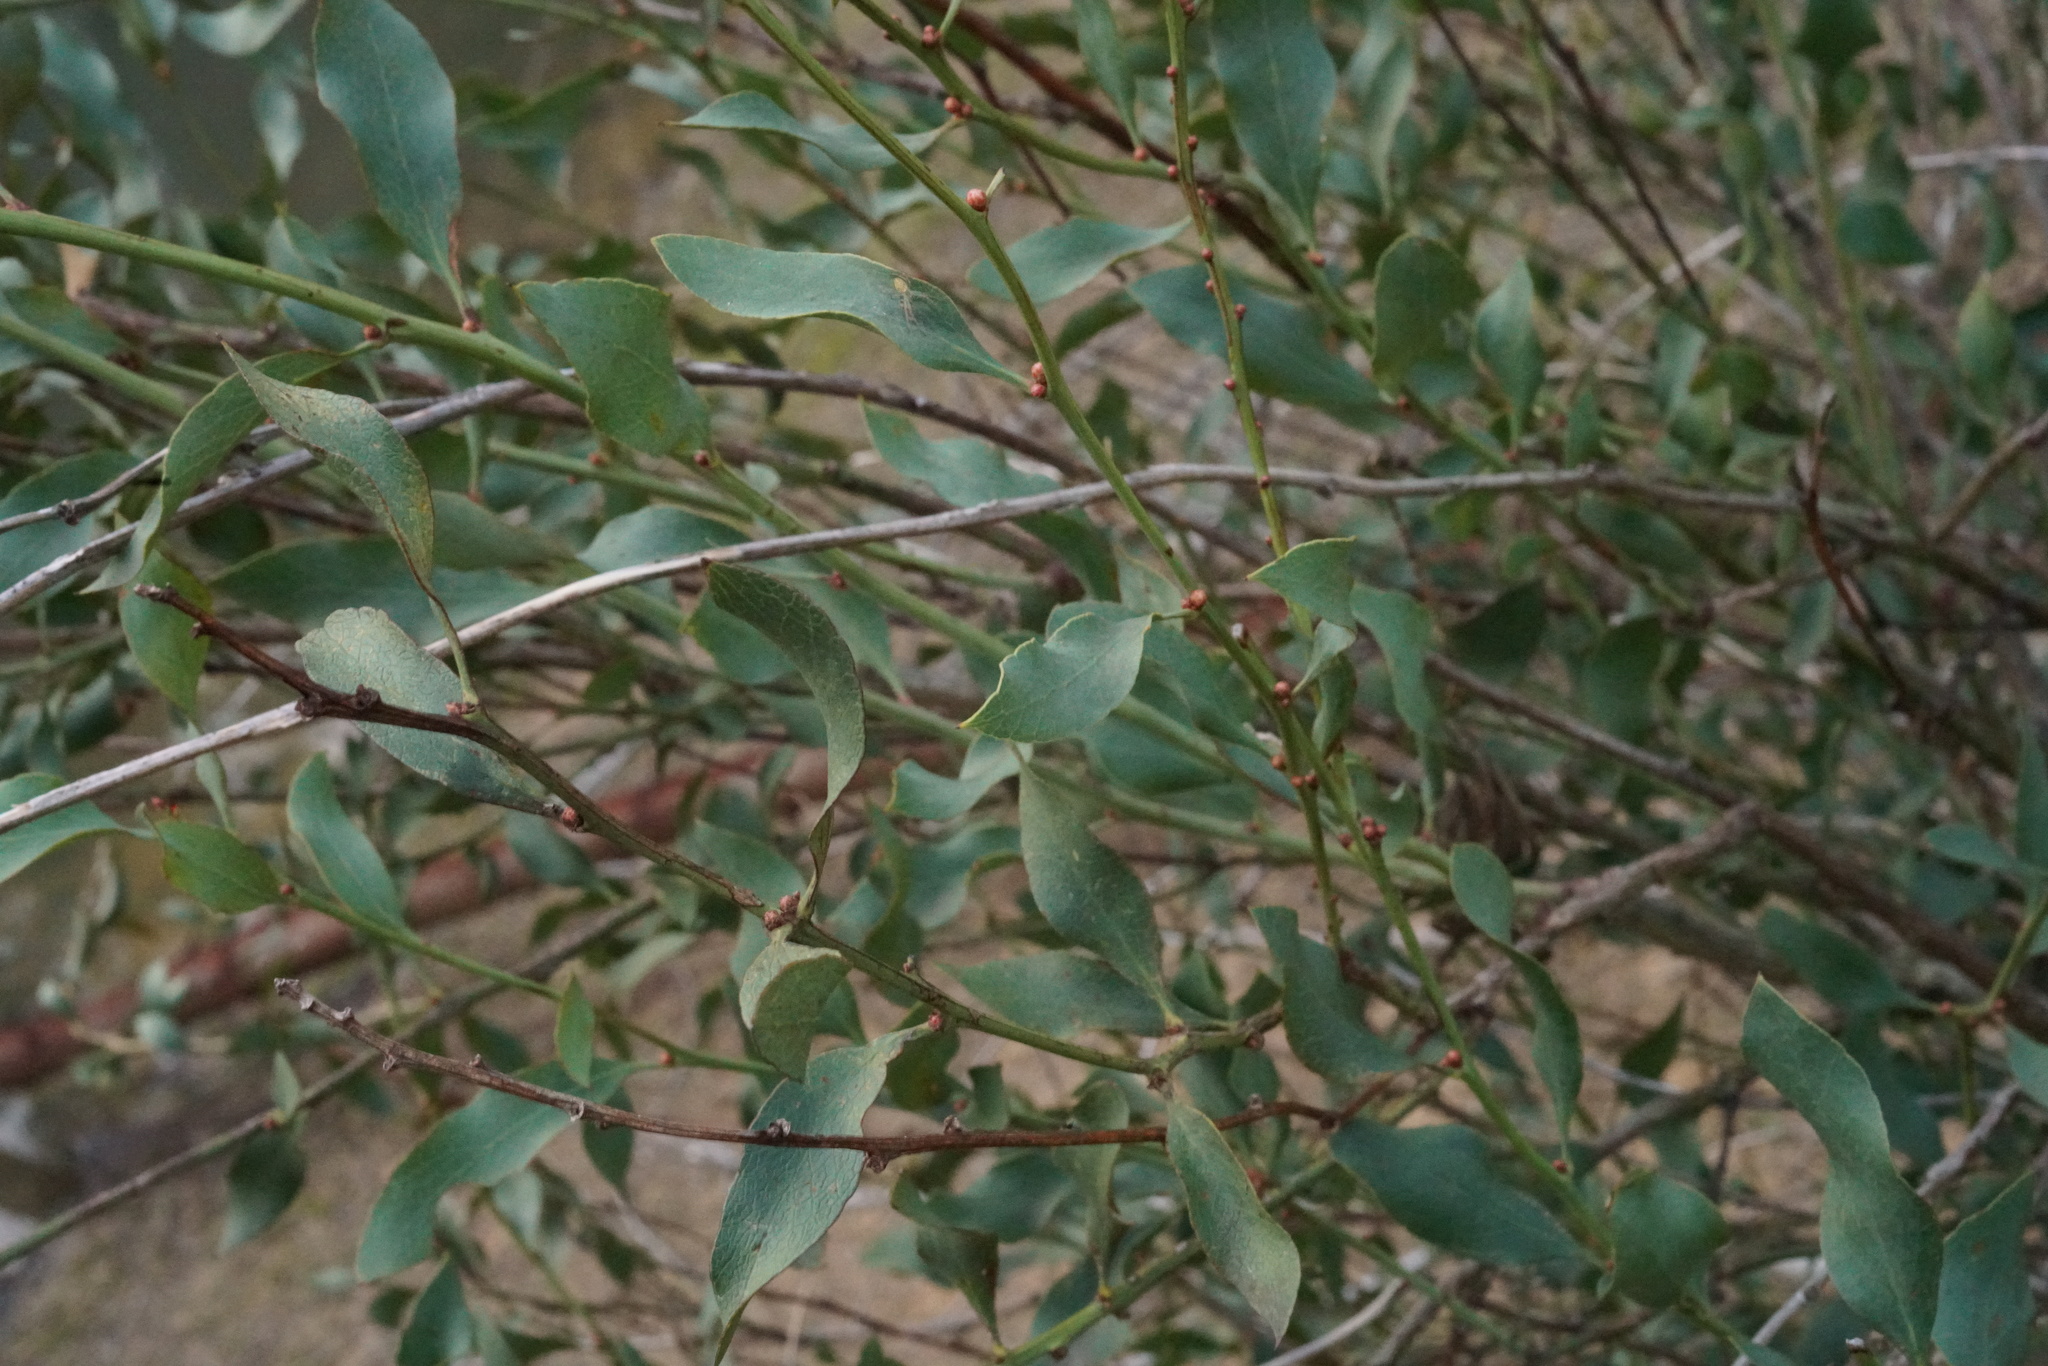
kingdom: Plantae
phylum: Tracheophyta
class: Magnoliopsida
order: Fabales
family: Fabaceae
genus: Daviesia
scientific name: Daviesia latifolia
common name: Hop bitter-pea
